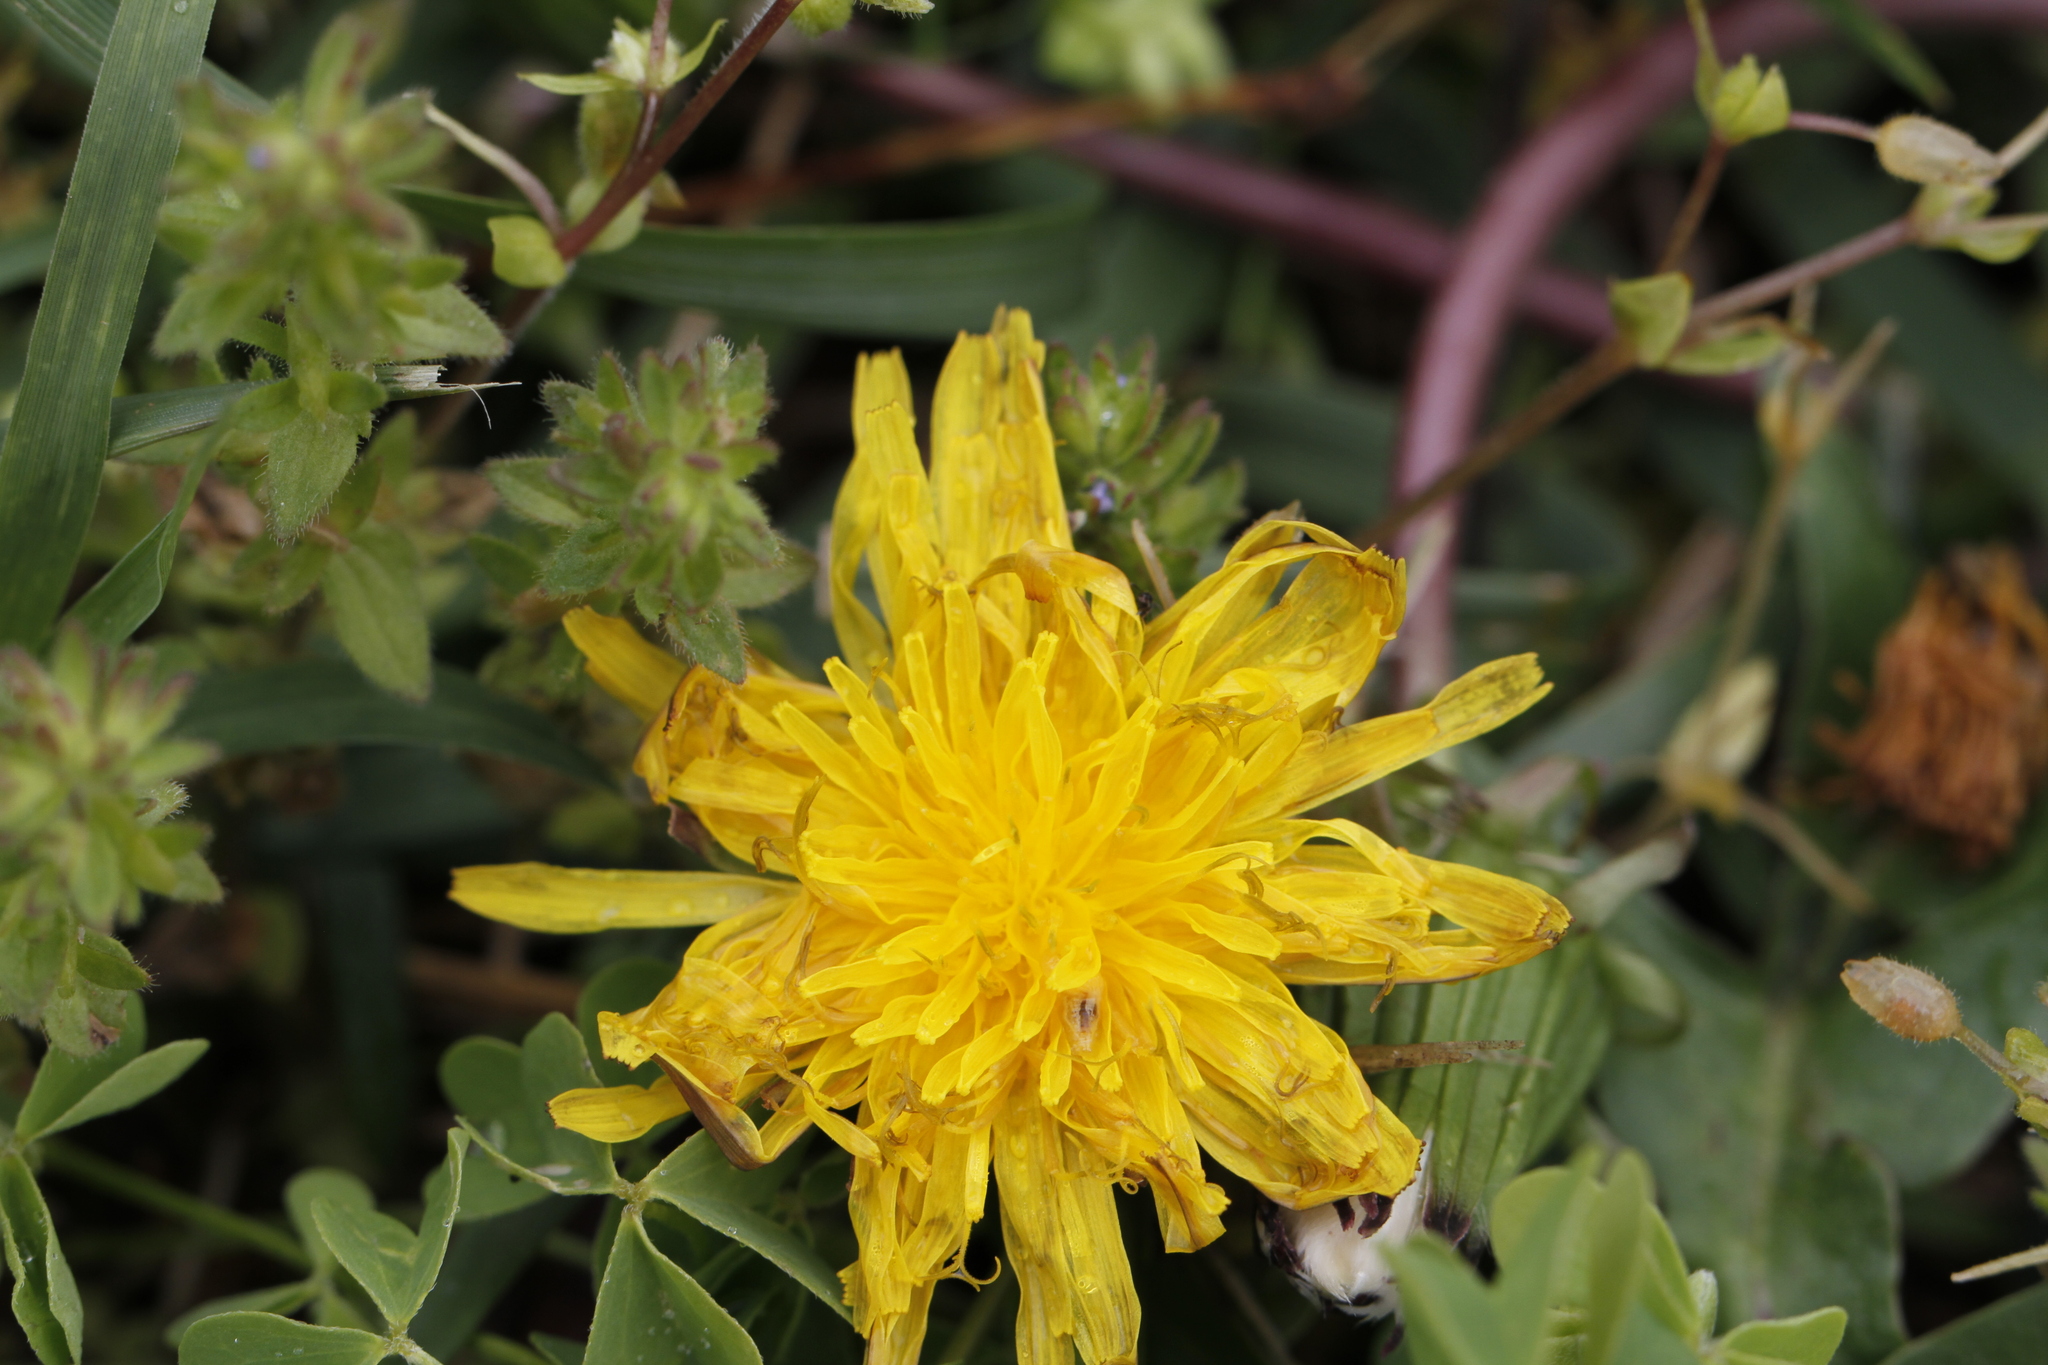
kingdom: Plantae
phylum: Tracheophyta
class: Magnoliopsida
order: Asterales
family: Asteraceae
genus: Taraxacum
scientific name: Taraxacum officinale
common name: Common dandelion
